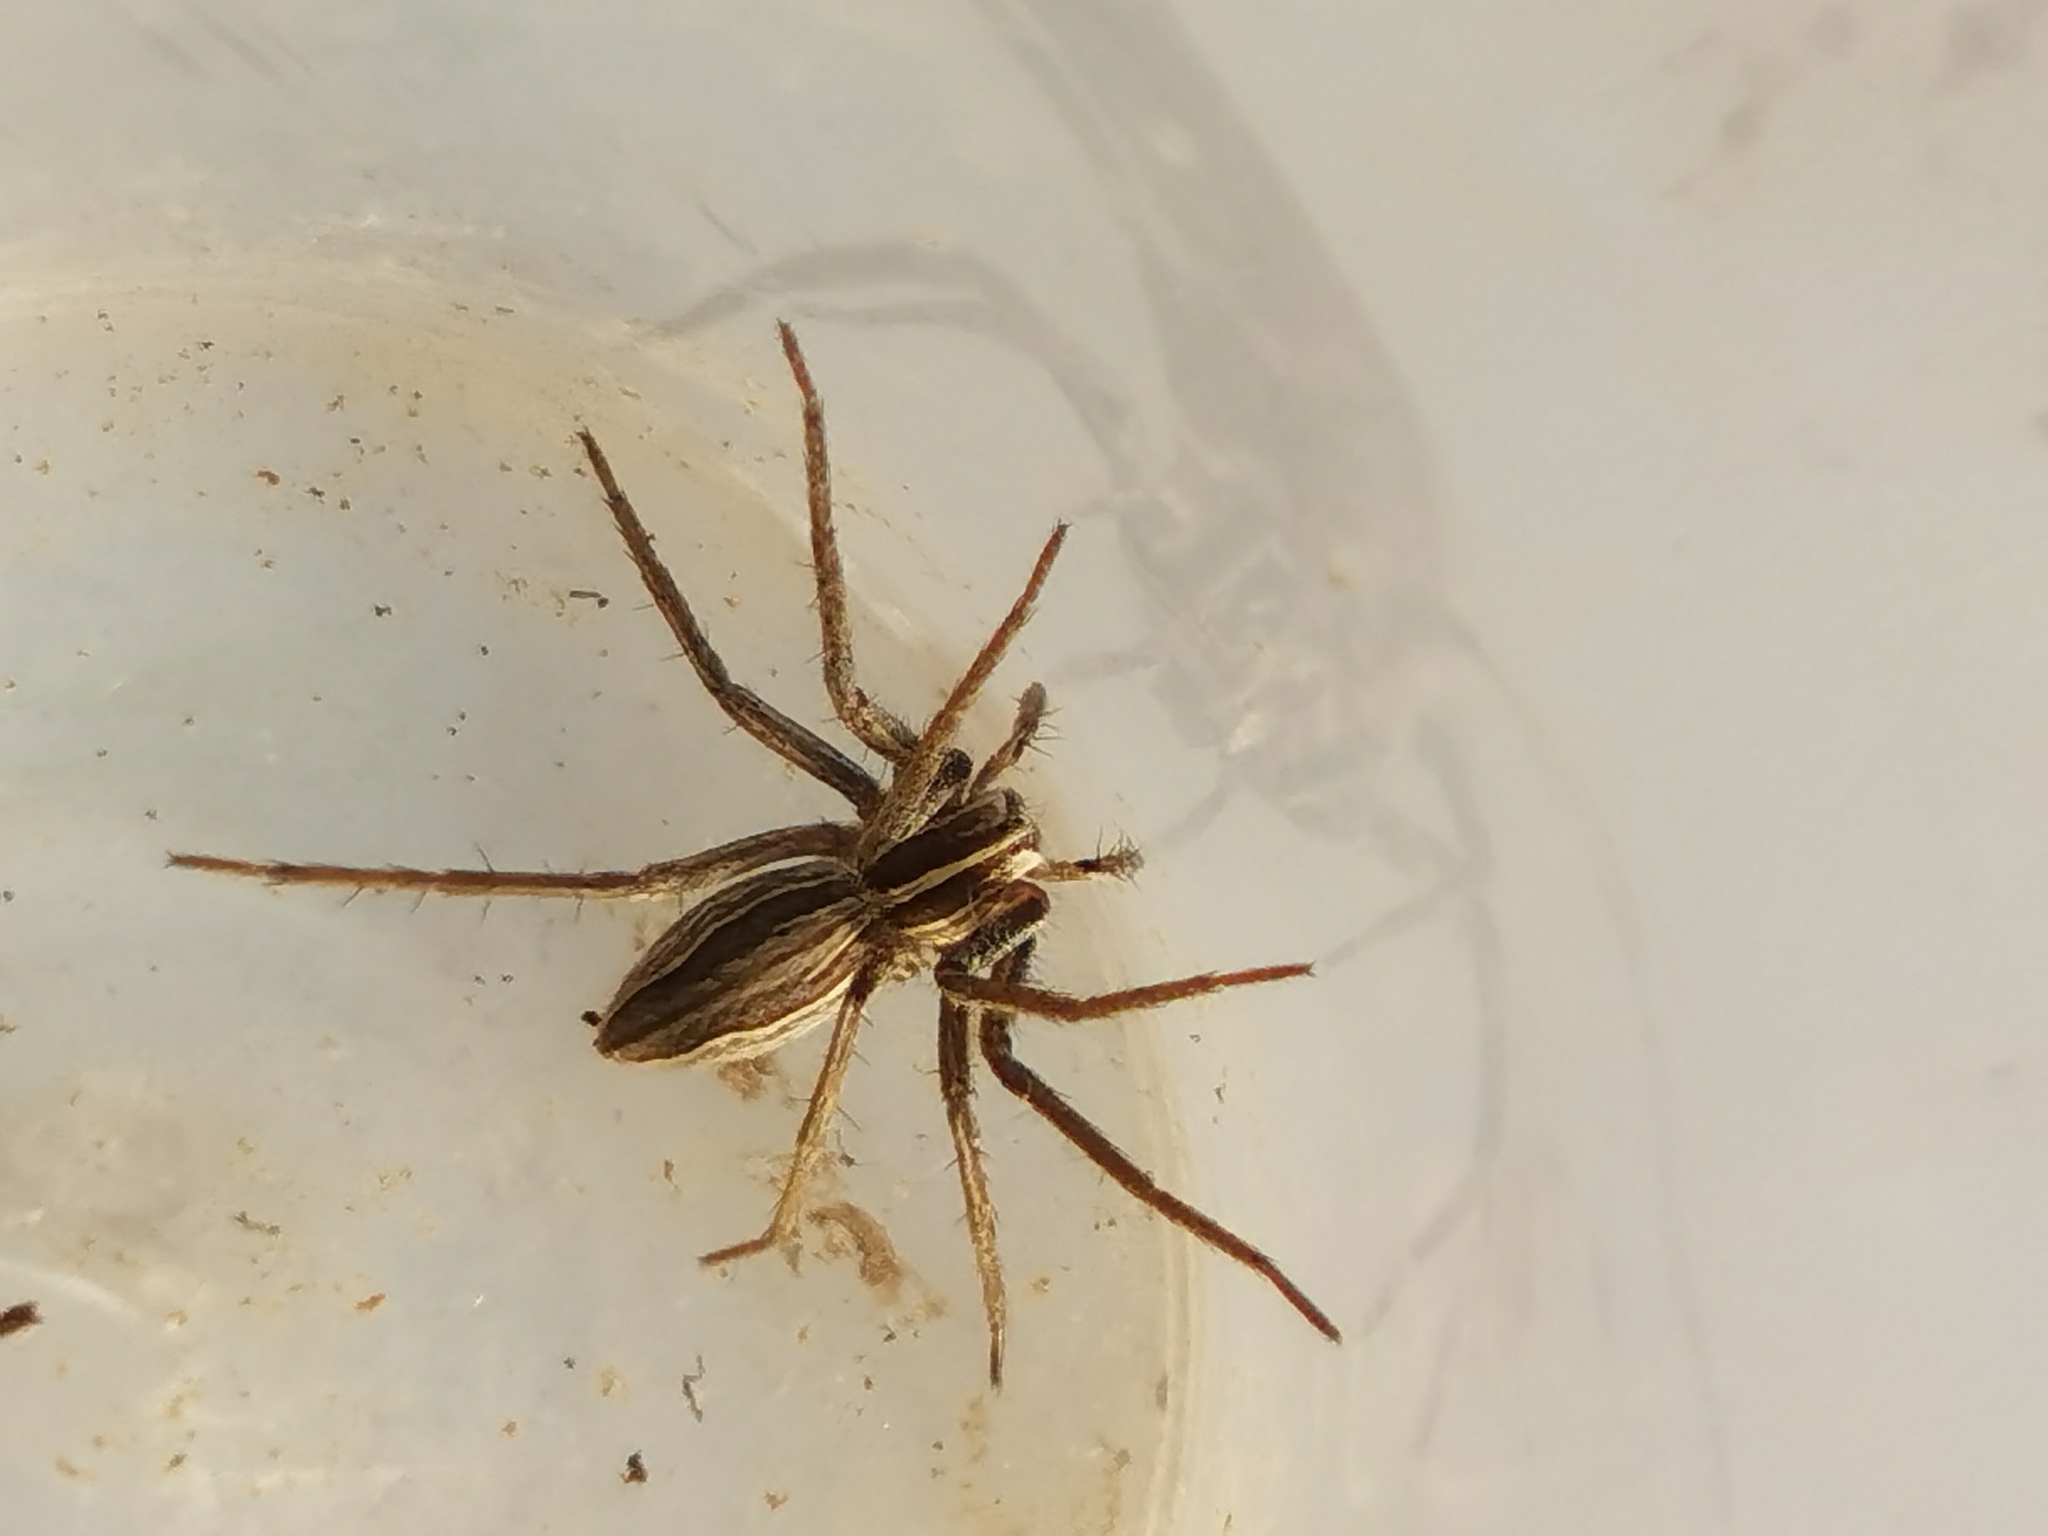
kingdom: Animalia
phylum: Arthropoda
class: Arachnida
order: Araneae
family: Pisauridae
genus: Pisaura
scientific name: Pisaura
